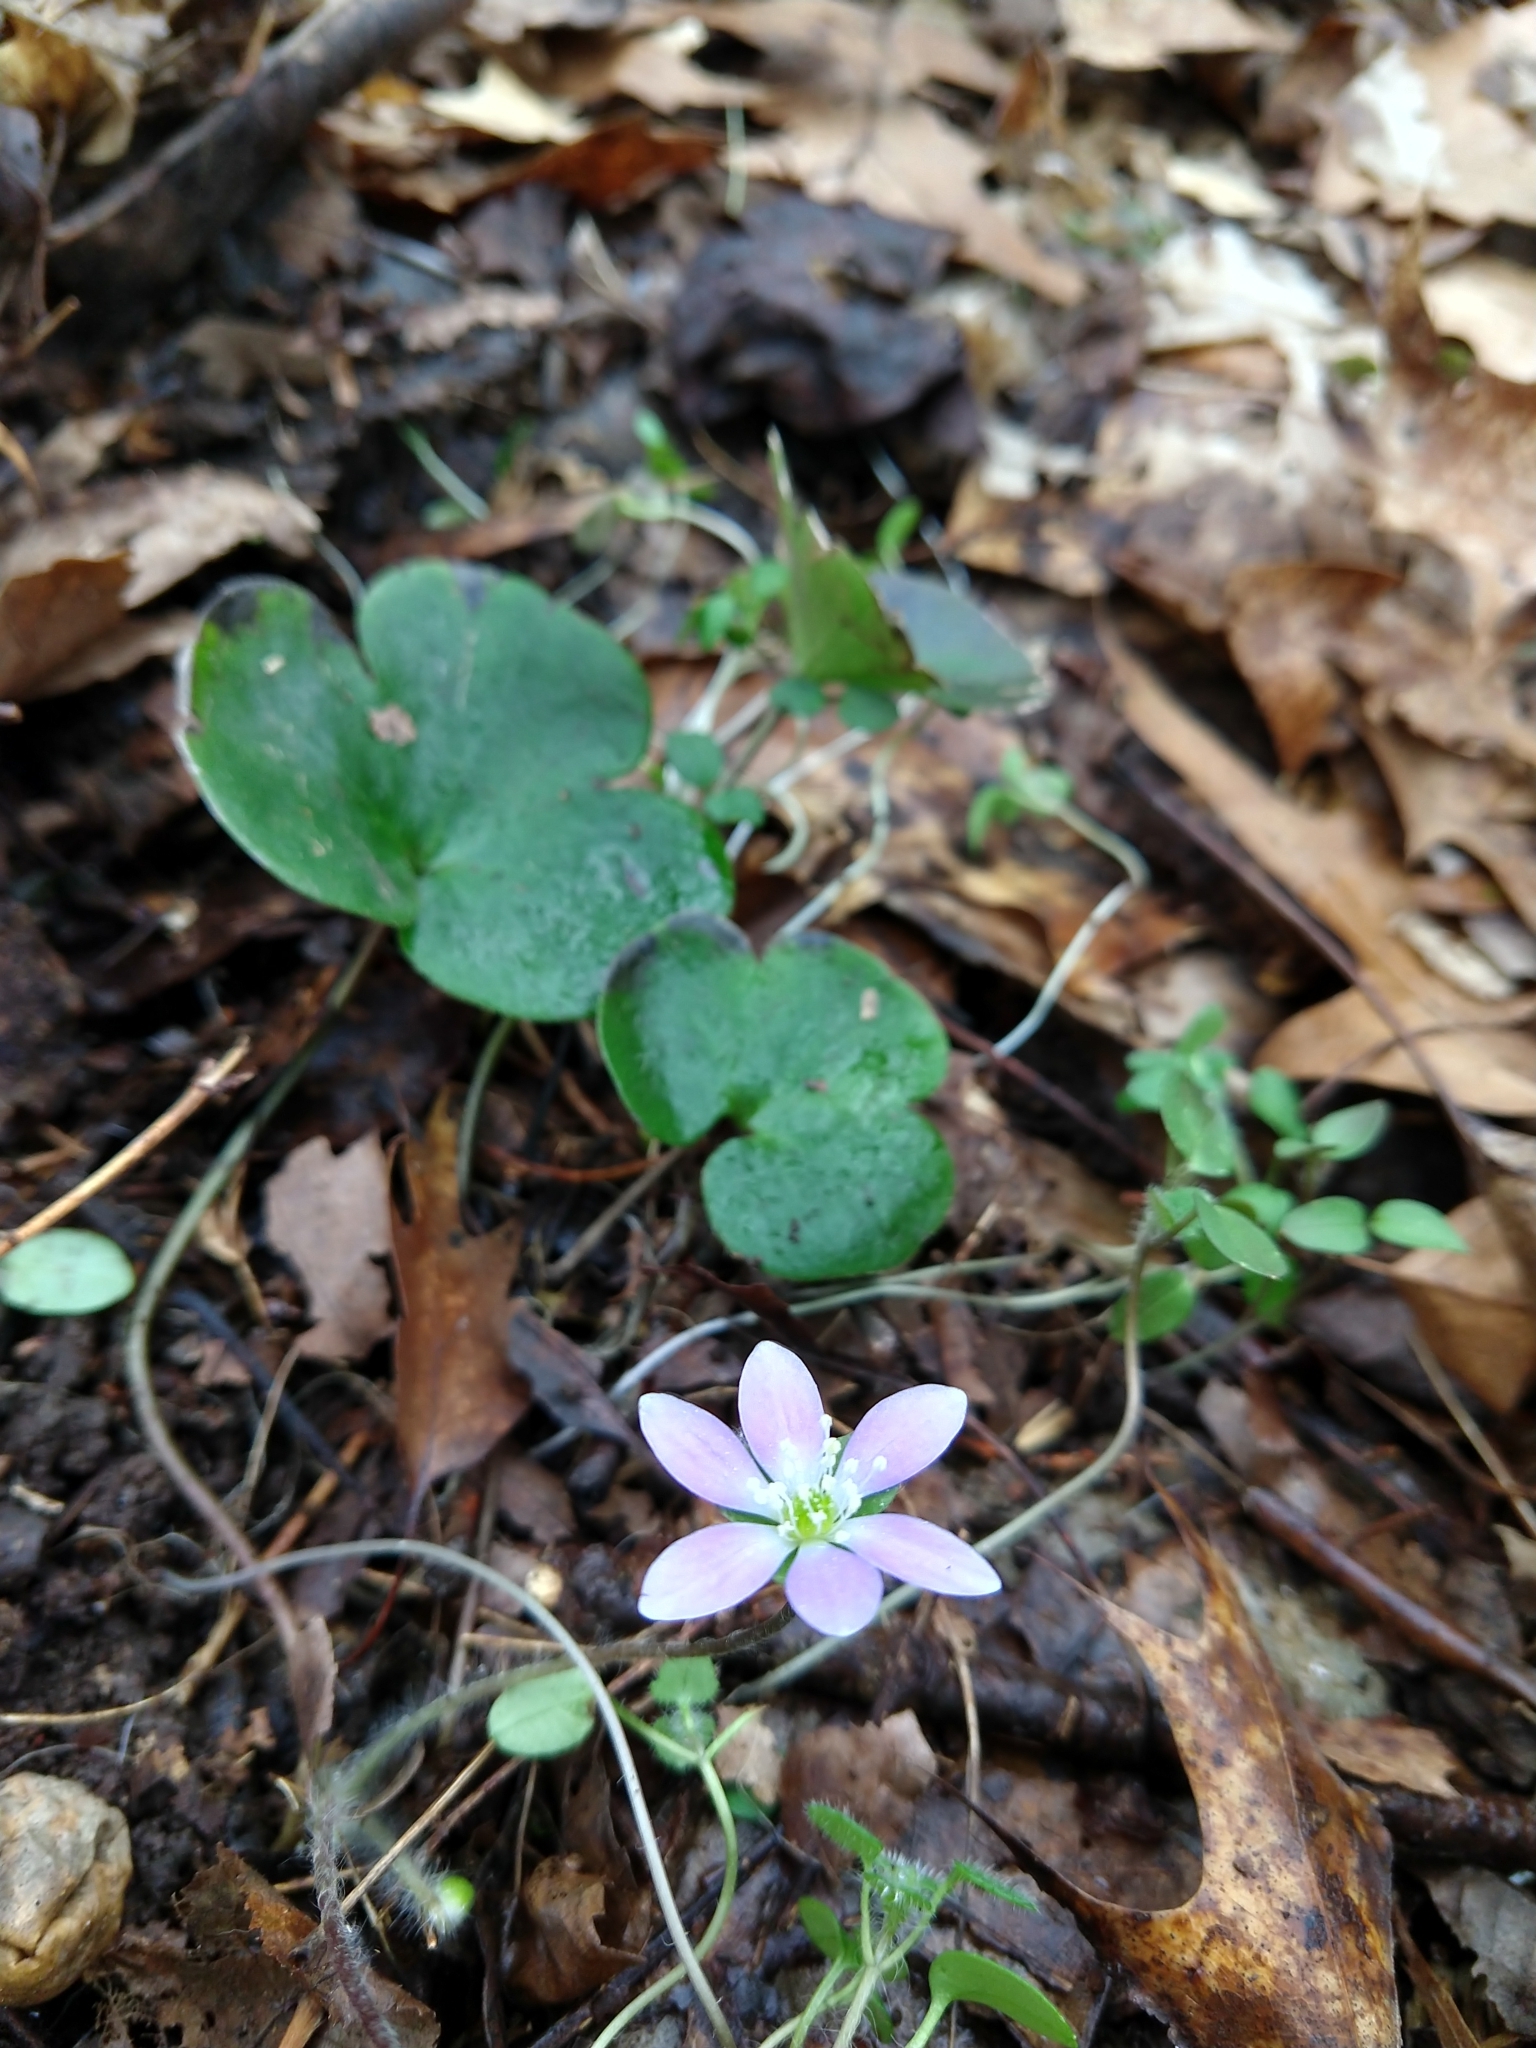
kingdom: Plantae
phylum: Tracheophyta
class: Magnoliopsida
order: Ranunculales
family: Ranunculaceae
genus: Hepatica
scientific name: Hepatica americana
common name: American hepatica
